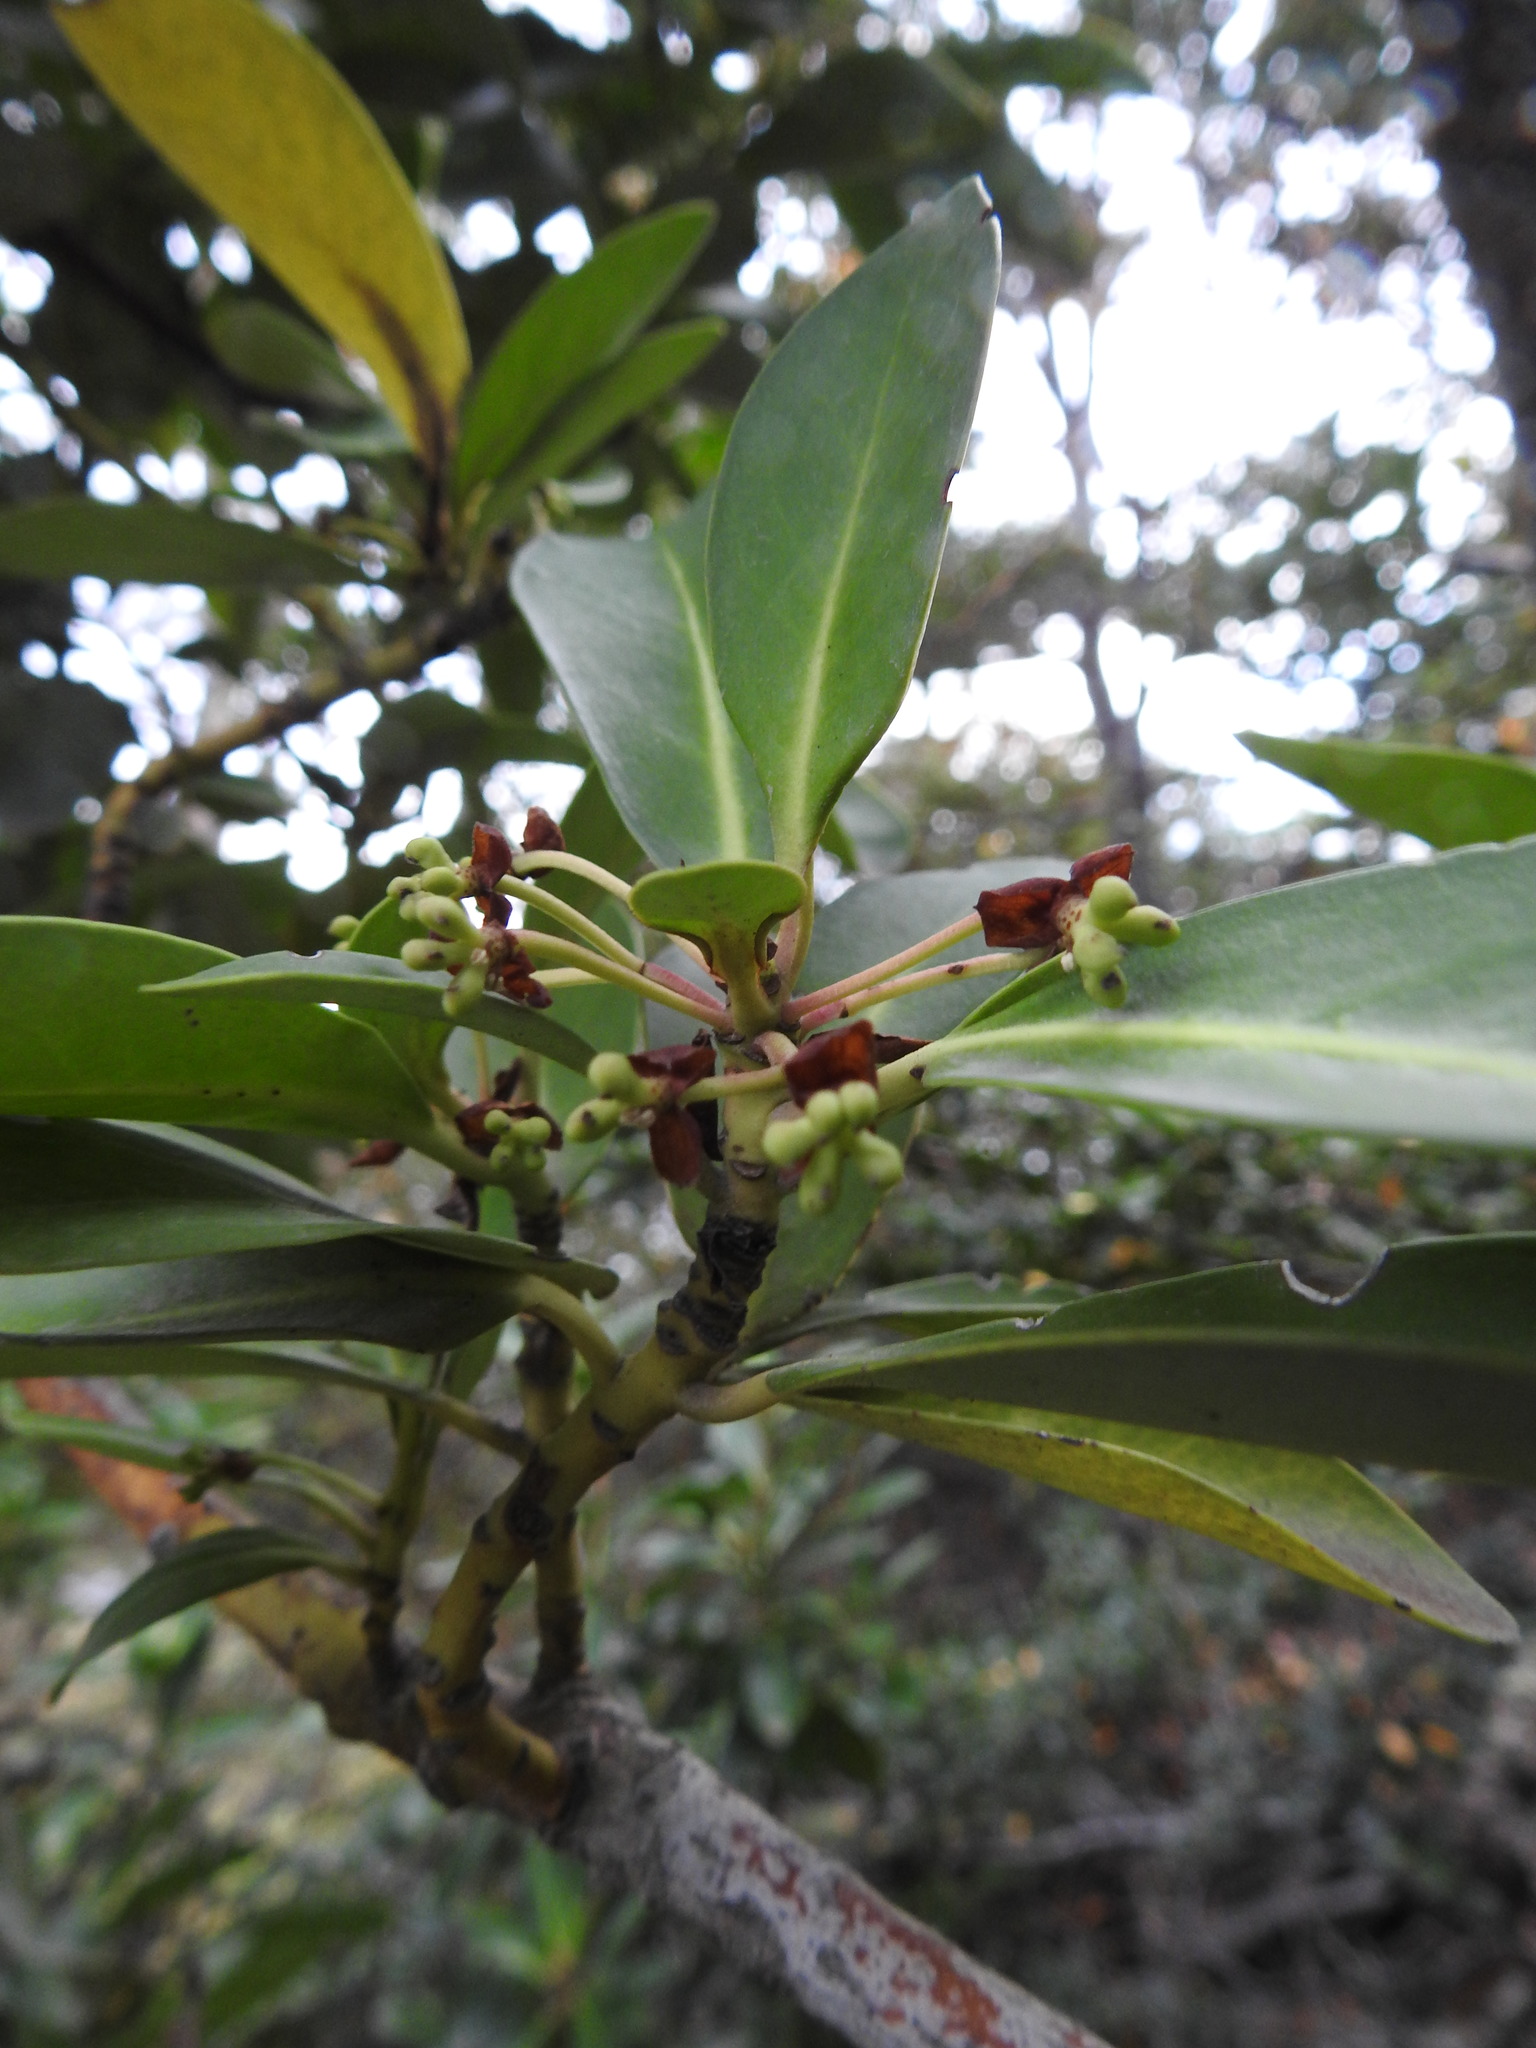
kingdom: Plantae
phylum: Tracheophyta
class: Magnoliopsida
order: Canellales
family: Winteraceae
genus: Drimys
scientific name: Drimys winteri
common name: Winter's-bark
